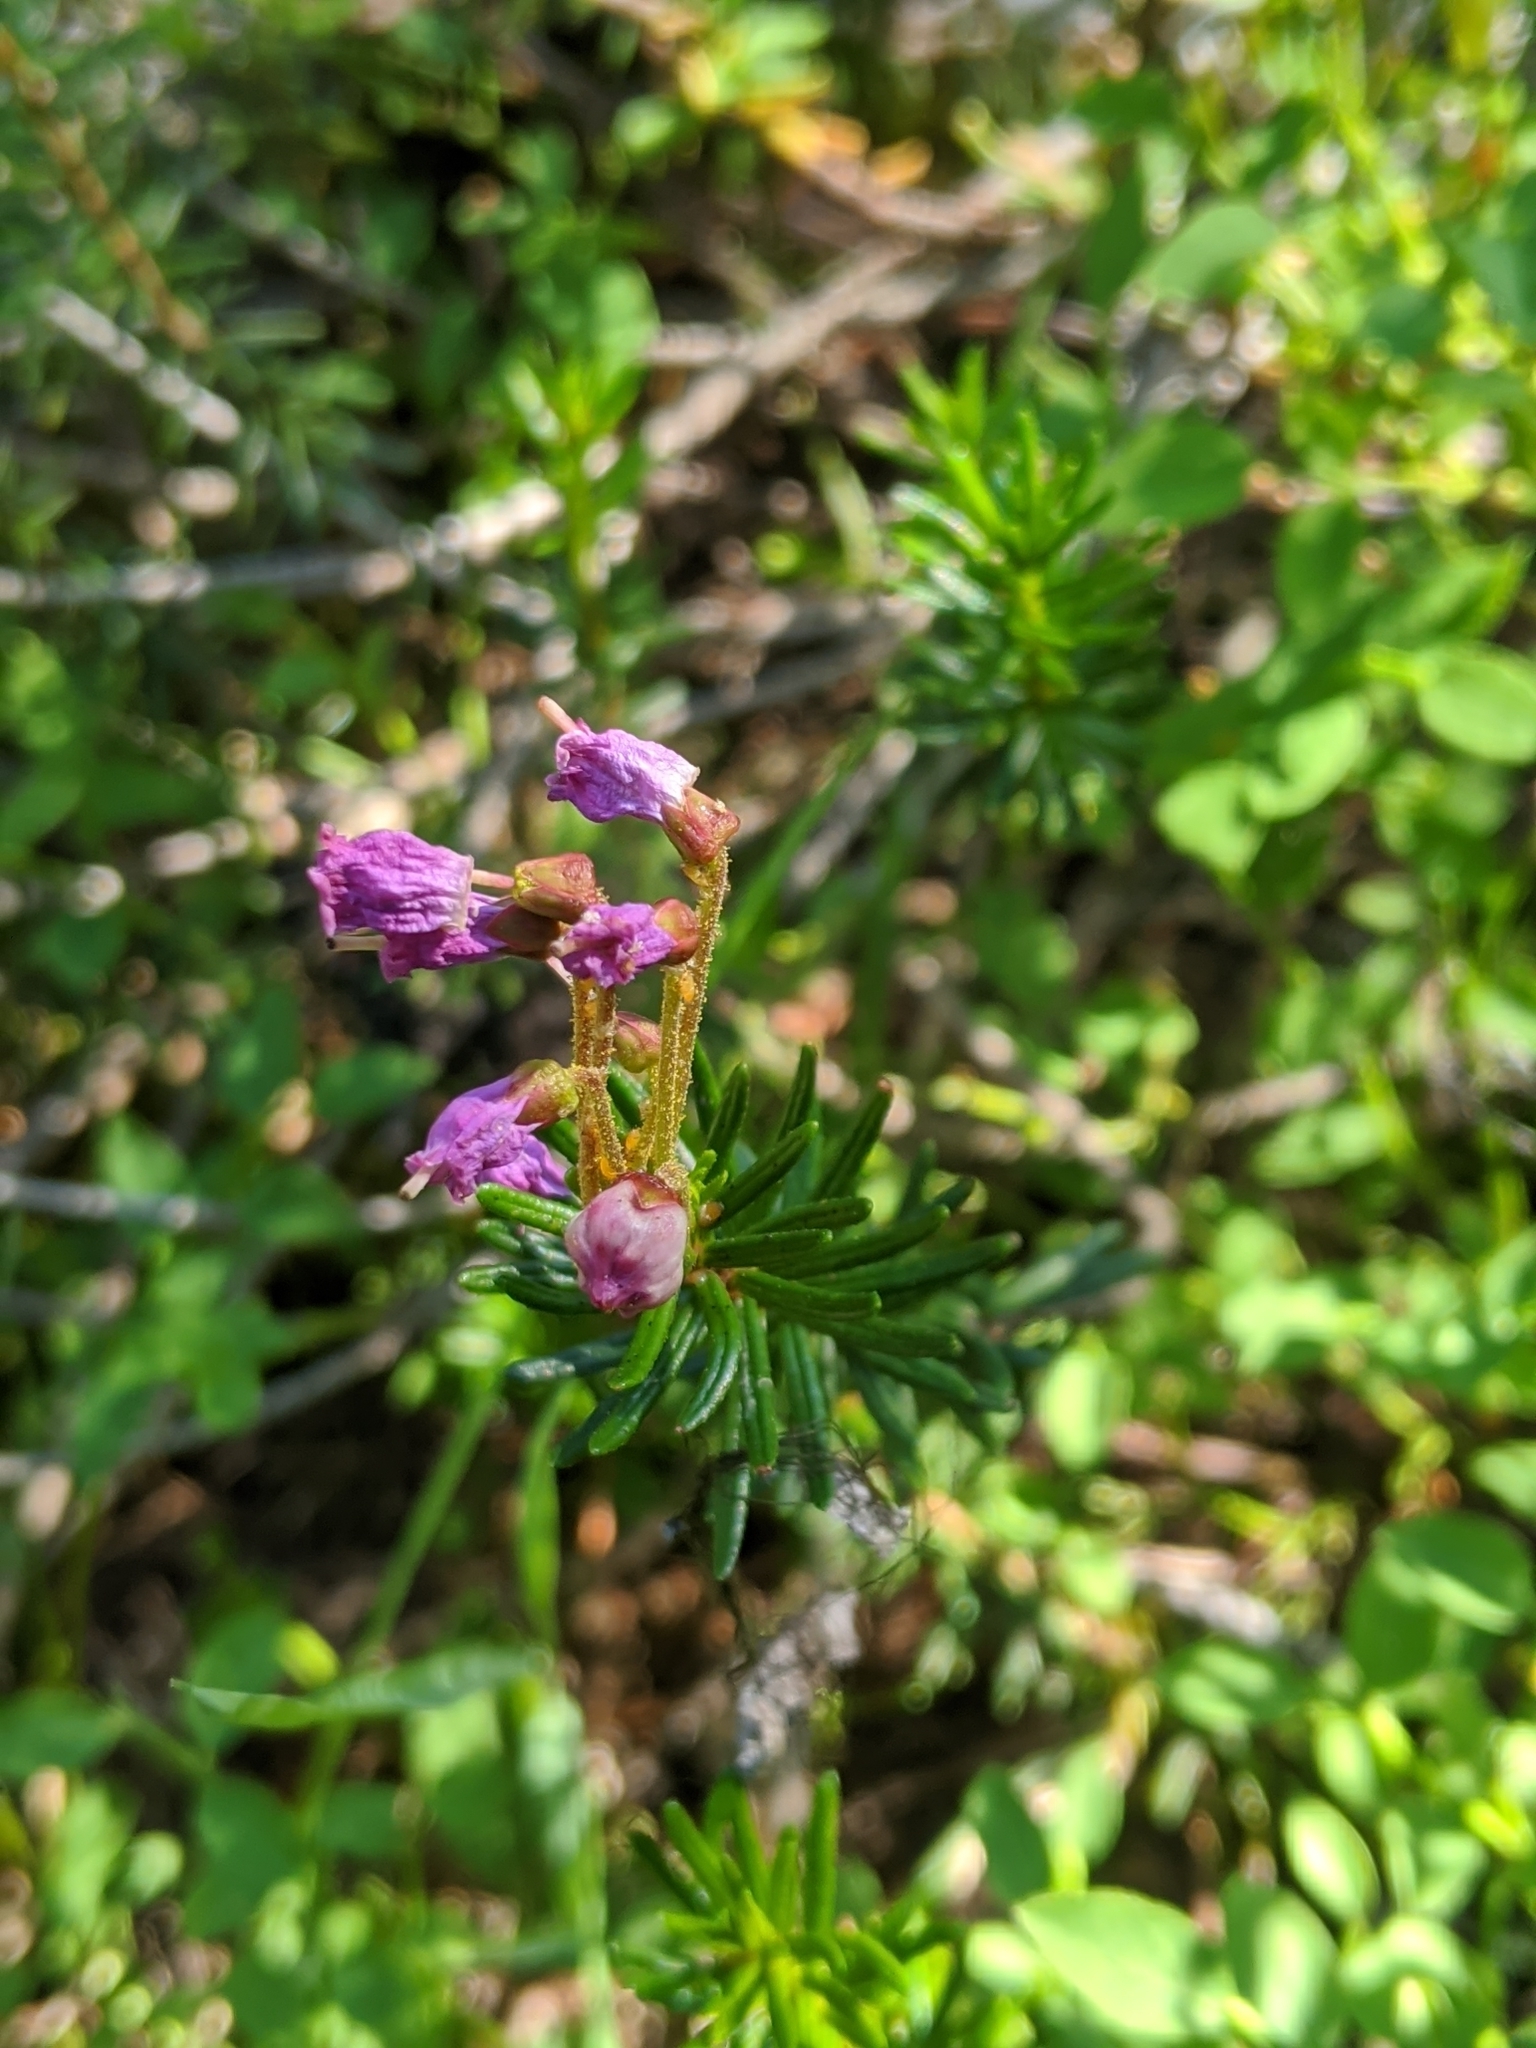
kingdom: Plantae
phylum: Tracheophyta
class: Magnoliopsida
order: Ericales
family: Ericaceae
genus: Phyllodoce
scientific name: Phyllodoce empetriformis
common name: Pink mountain heather
